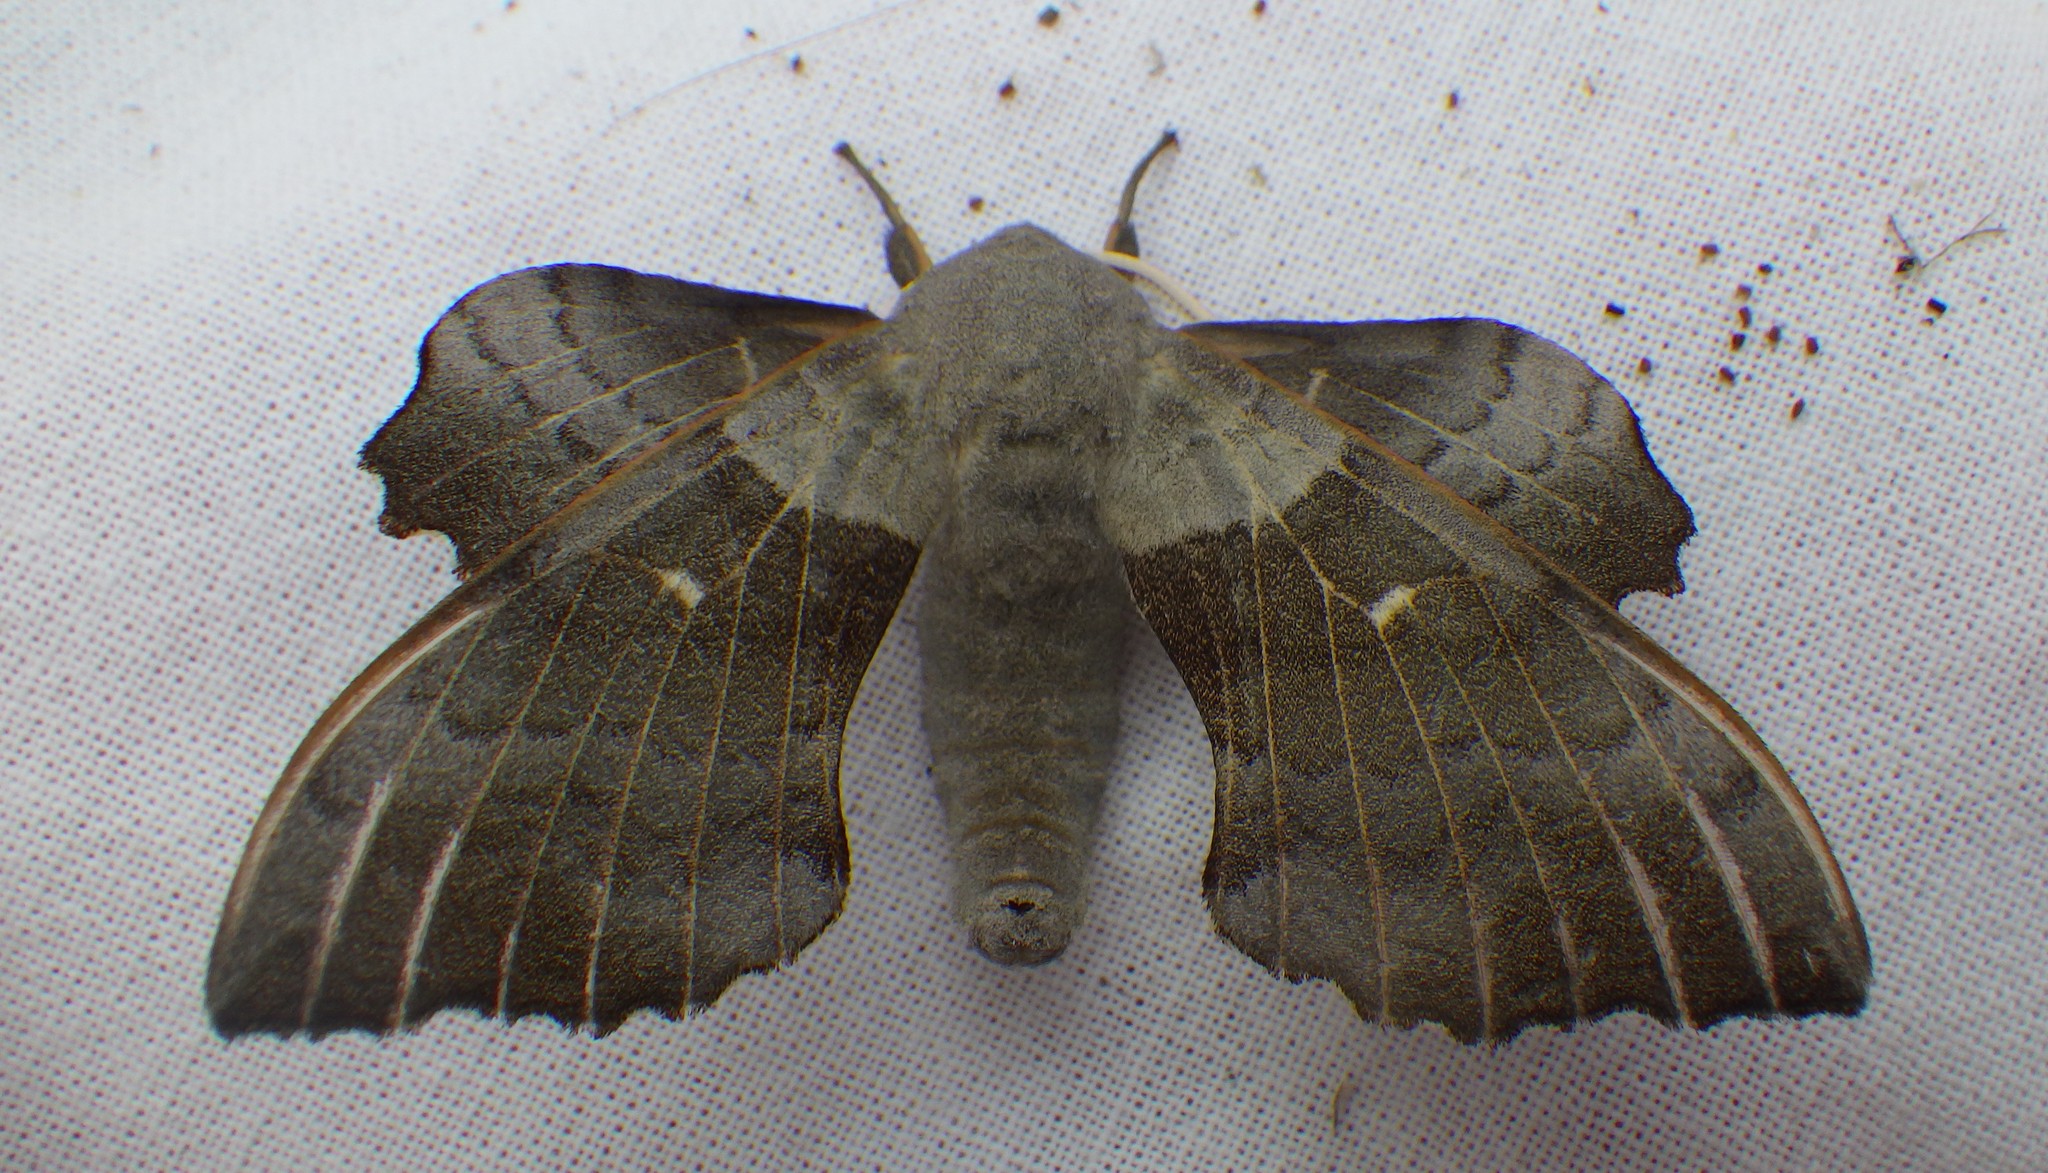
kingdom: Animalia
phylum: Arthropoda
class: Insecta
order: Lepidoptera
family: Sphingidae
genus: Laothoe
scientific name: Laothoe populi
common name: Poplar hawk-moth
